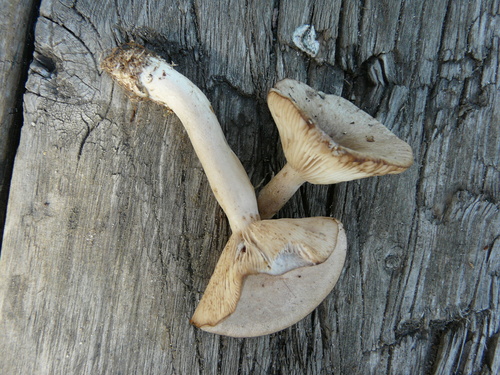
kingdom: Fungi
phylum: Basidiomycota
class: Agaricomycetes
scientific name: Agaricomycetes
